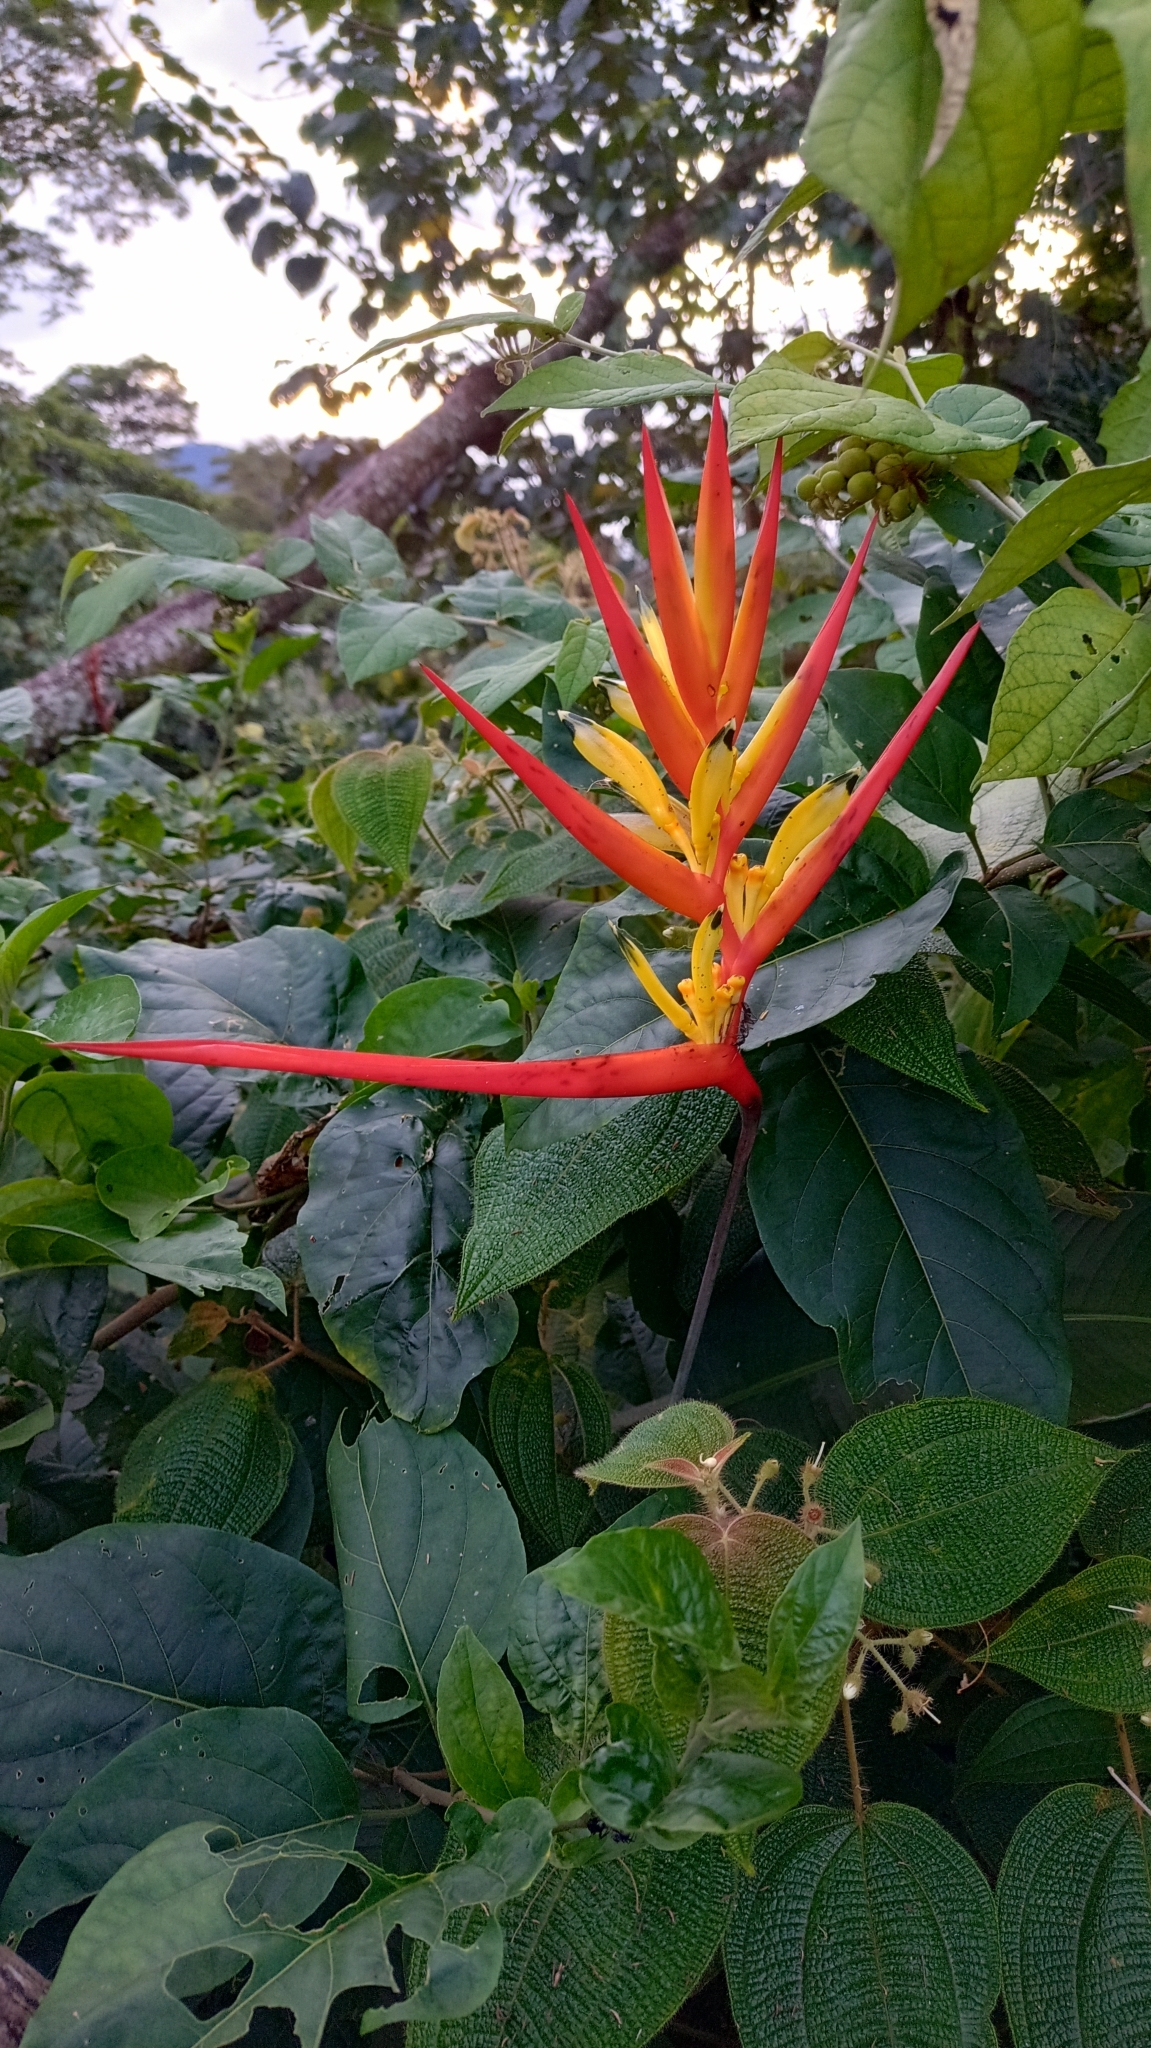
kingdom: Plantae
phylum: Tracheophyta
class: Liliopsida
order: Zingiberales
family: Heliconiaceae
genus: Heliconia
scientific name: Heliconia hirsuta
